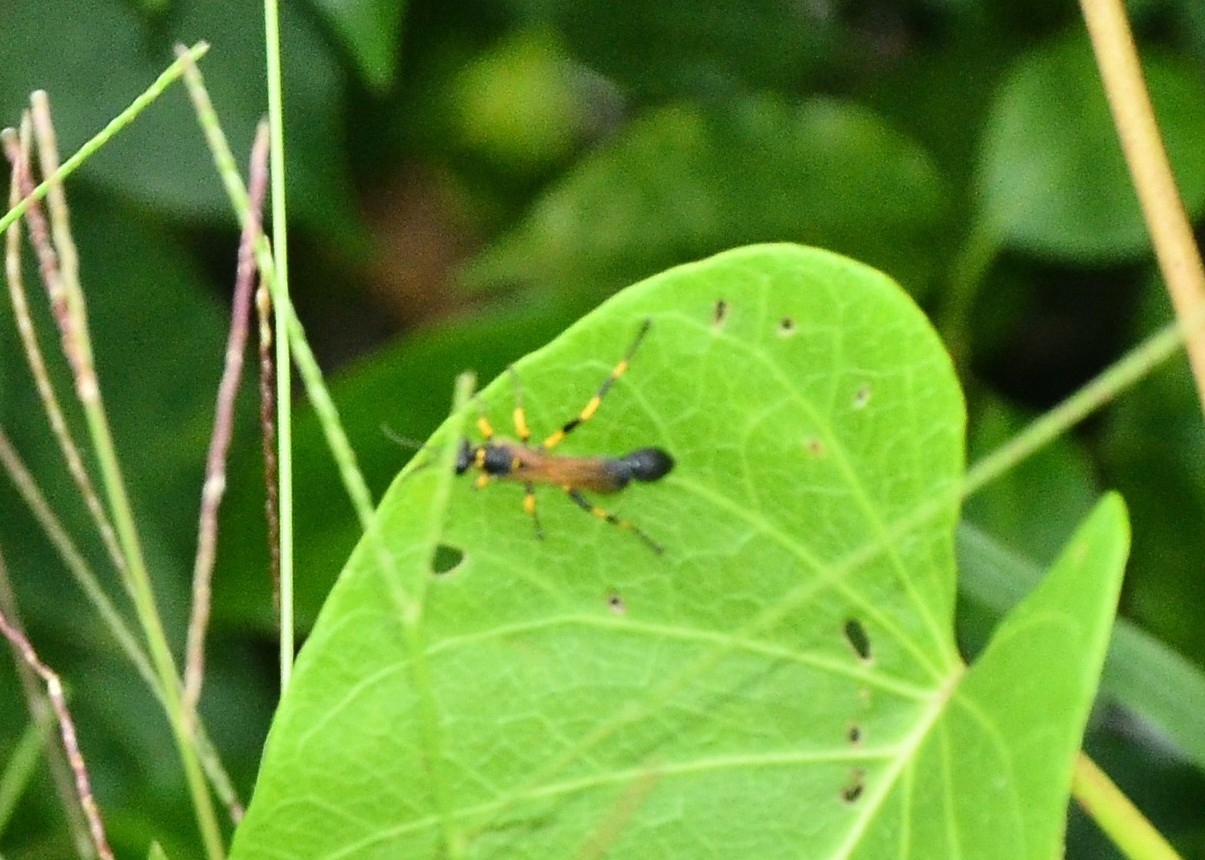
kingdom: Animalia
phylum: Arthropoda
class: Insecta
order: Hymenoptera
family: Sphecidae
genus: Sceliphron
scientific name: Sceliphron madraspatanum
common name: Mud dauber
